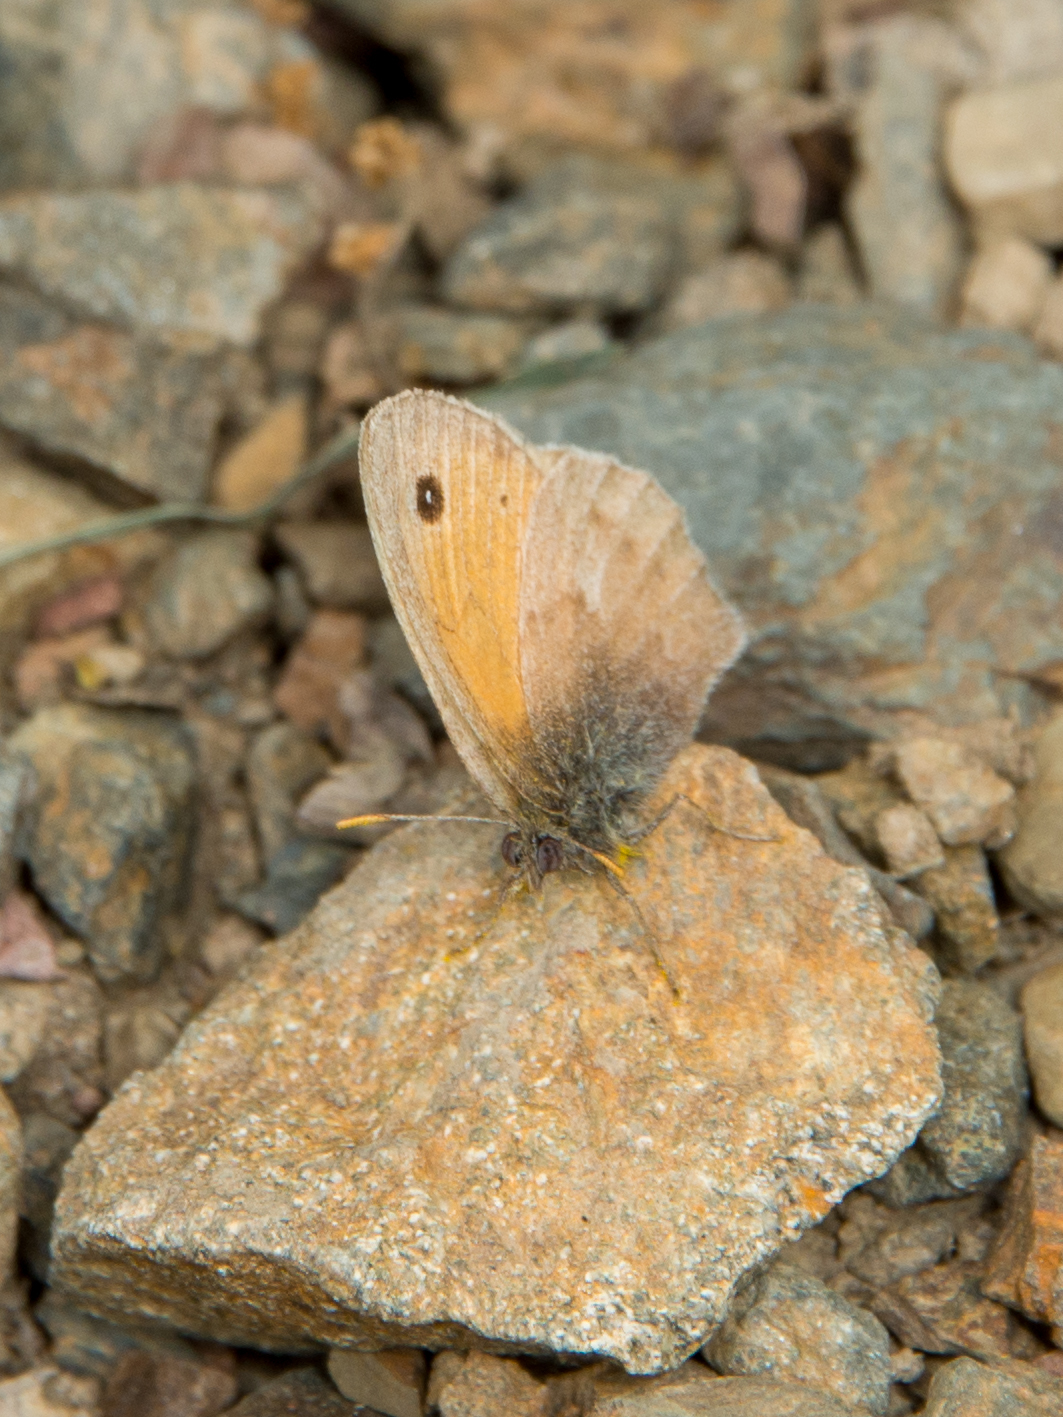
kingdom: Animalia
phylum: Arthropoda
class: Insecta
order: Lepidoptera
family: Nymphalidae
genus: Coenonympha
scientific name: Coenonympha pamphilus
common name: Small heath
